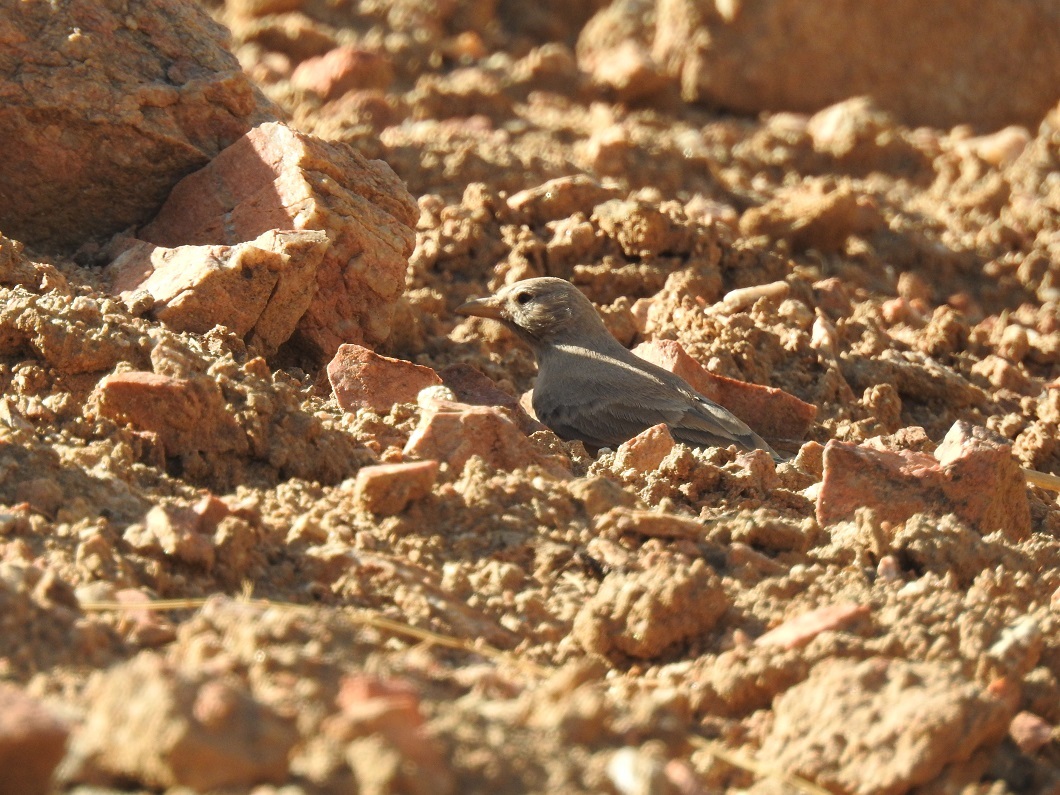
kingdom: Animalia
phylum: Chordata
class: Aves
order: Passeriformes
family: Alaudidae
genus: Ammomanes
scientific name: Ammomanes deserti
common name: Desert lark
